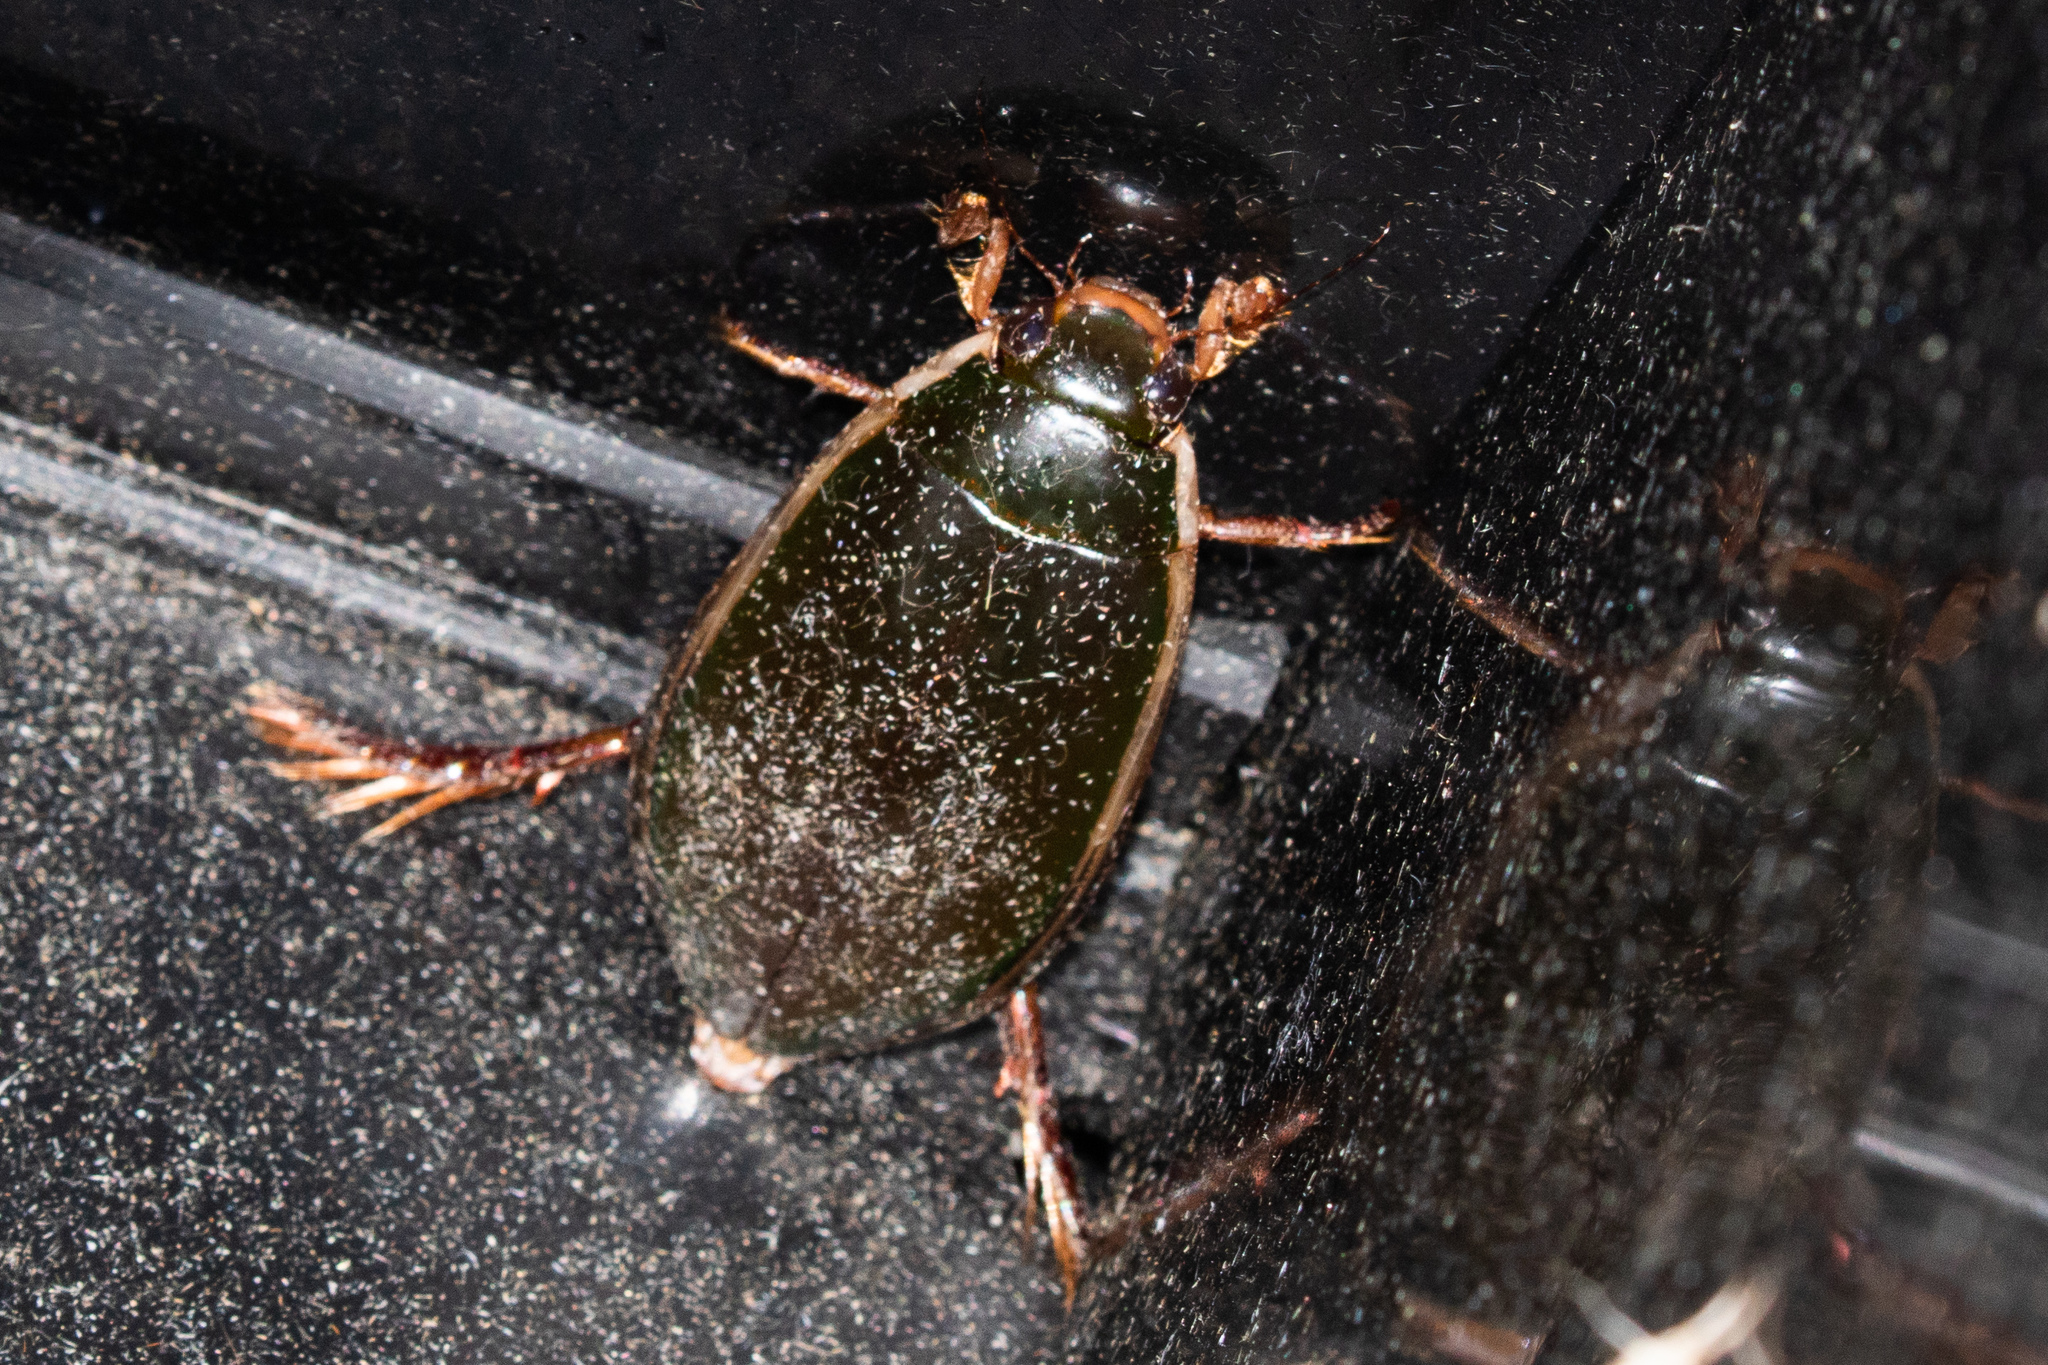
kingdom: Animalia
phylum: Arthropoda
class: Insecta
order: Coleoptera
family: Dytiscidae
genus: Cybister
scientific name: Cybister fimbriolatus
